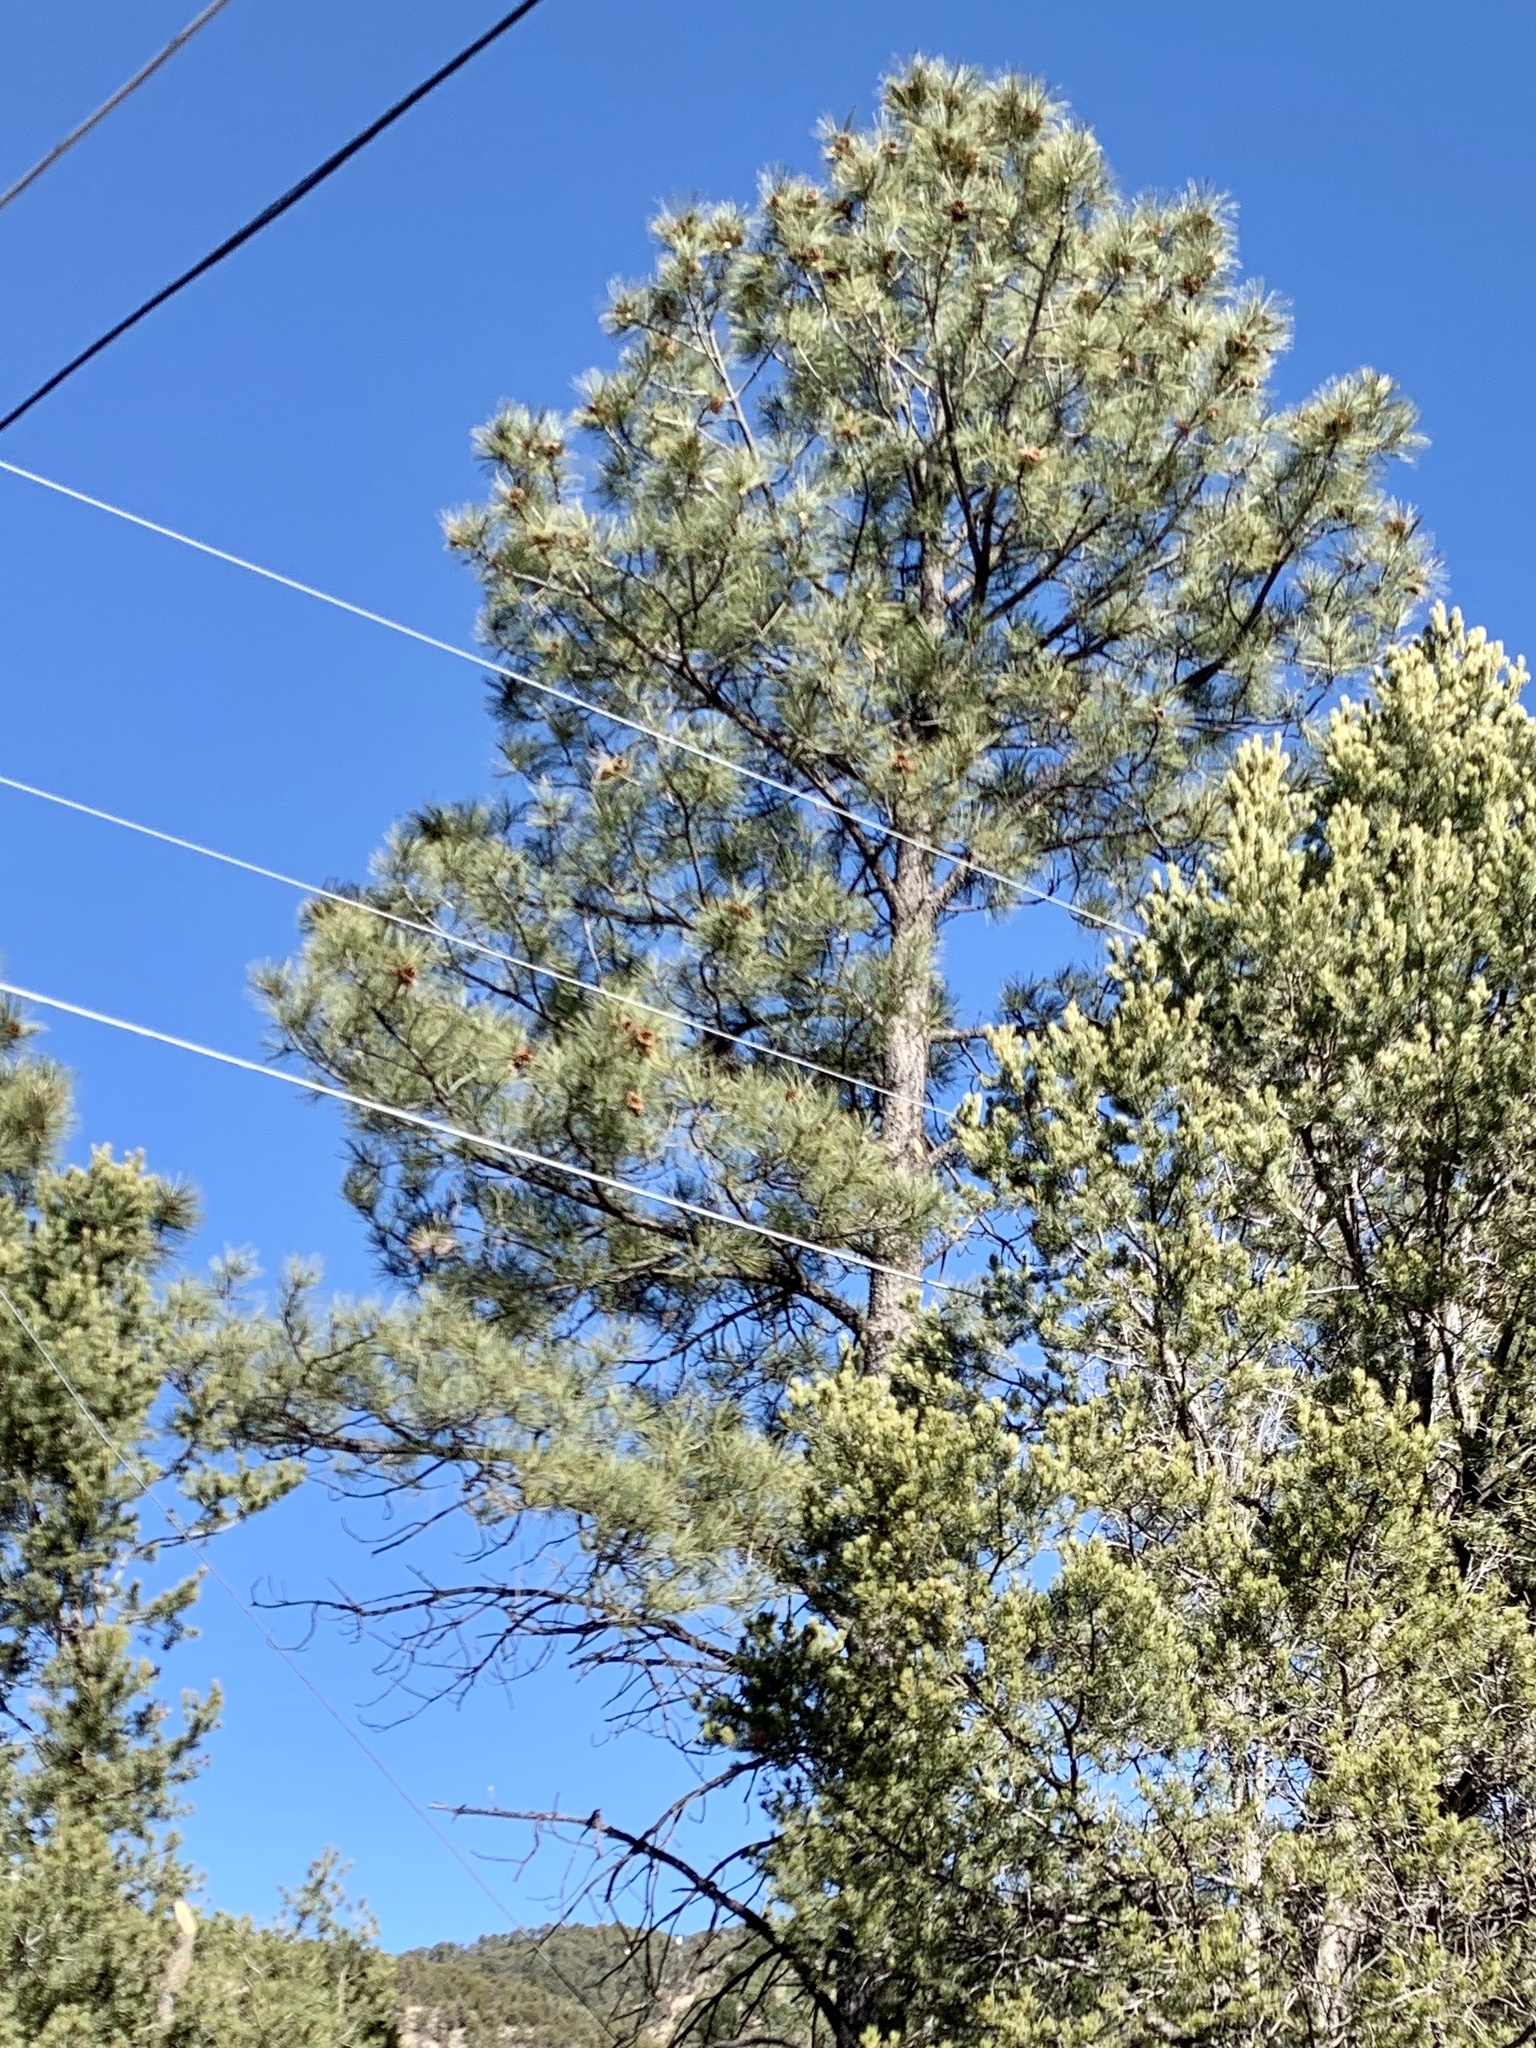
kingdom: Plantae
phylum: Tracheophyta
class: Pinopsida
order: Pinales
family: Pinaceae
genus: Pinus
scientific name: Pinus ponderosa
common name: Western yellow-pine
